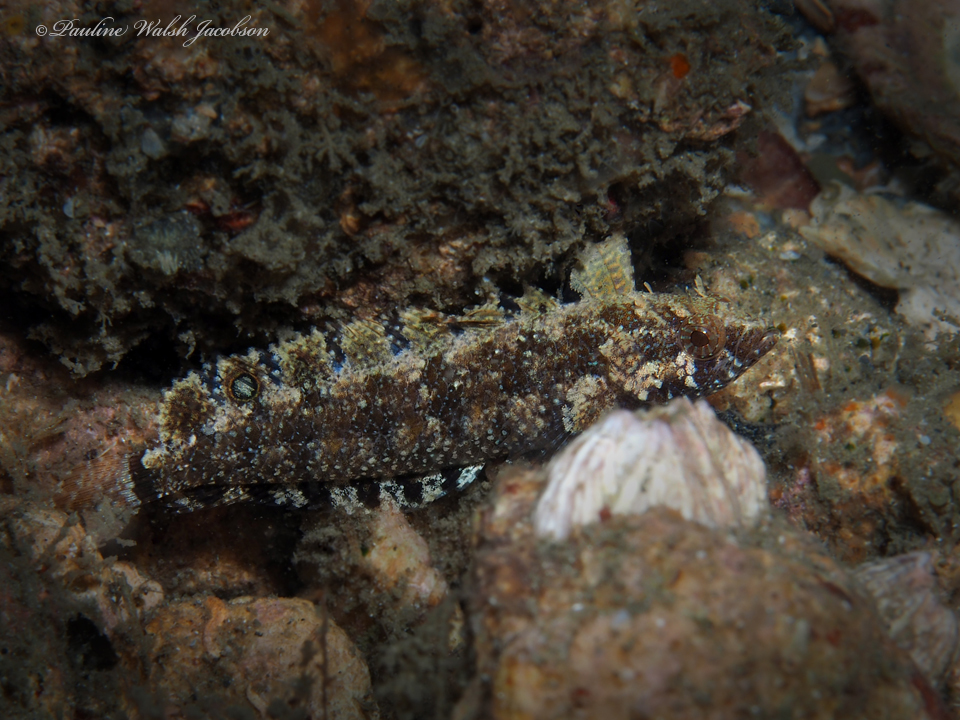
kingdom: Animalia
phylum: Chordata
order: Perciformes
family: Labrisomidae
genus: Paraclinus
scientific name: Paraclinus fasciatus
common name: Banded blenny
